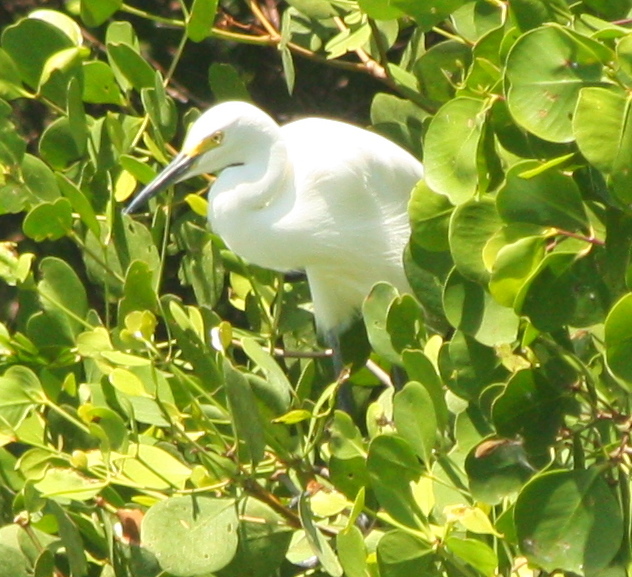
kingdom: Animalia
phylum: Chordata
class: Aves
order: Pelecaniformes
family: Ardeidae
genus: Egretta
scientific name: Egretta garzetta
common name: Little egret
